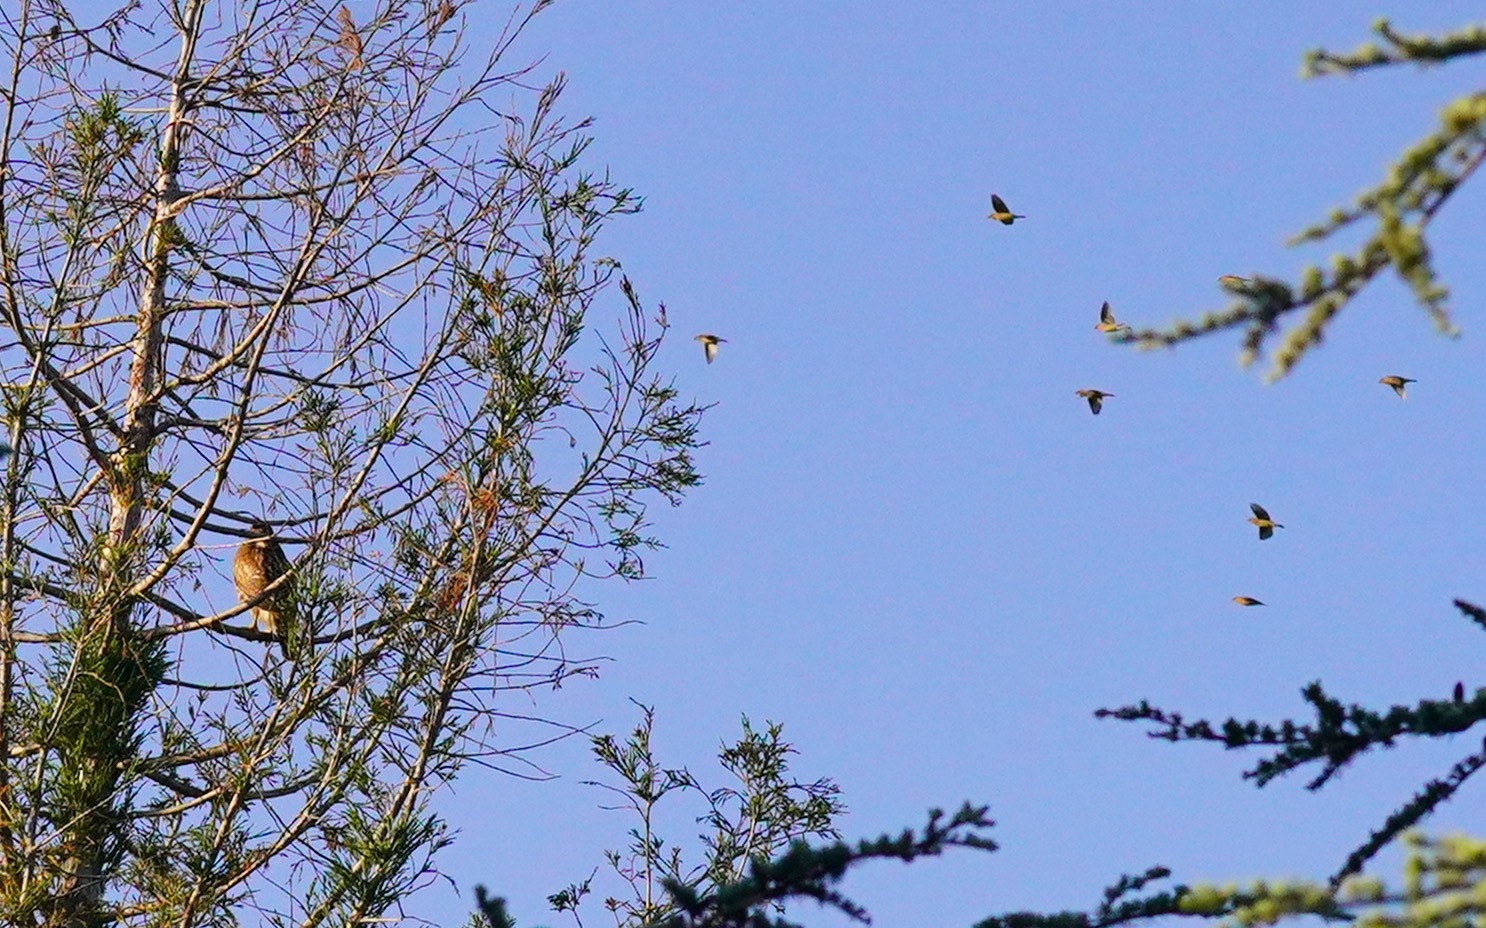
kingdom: Animalia
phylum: Chordata
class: Aves
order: Accipitriformes
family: Accipitridae
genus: Buteo
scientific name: Buteo lineatus
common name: Red-shouldered hawk
